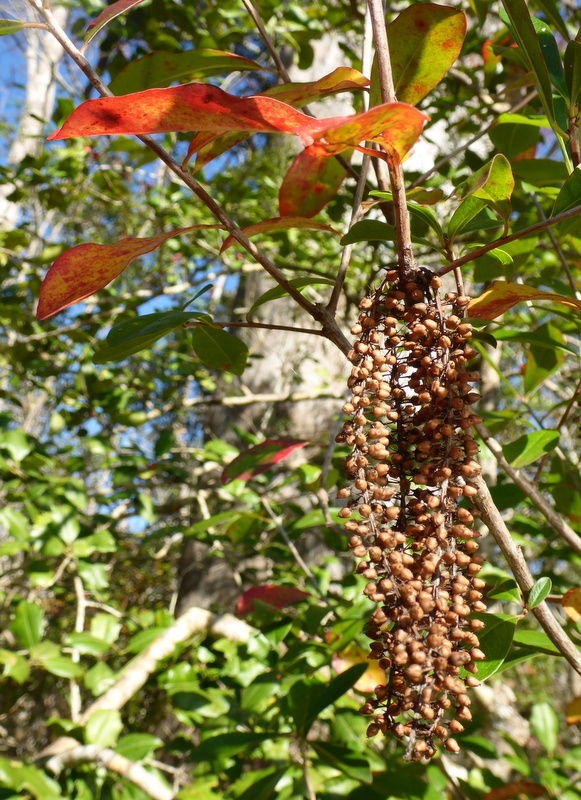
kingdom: Plantae
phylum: Tracheophyta
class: Magnoliopsida
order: Ericales
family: Cyrillaceae
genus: Cyrilla
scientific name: Cyrilla racemiflora
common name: Black titi
